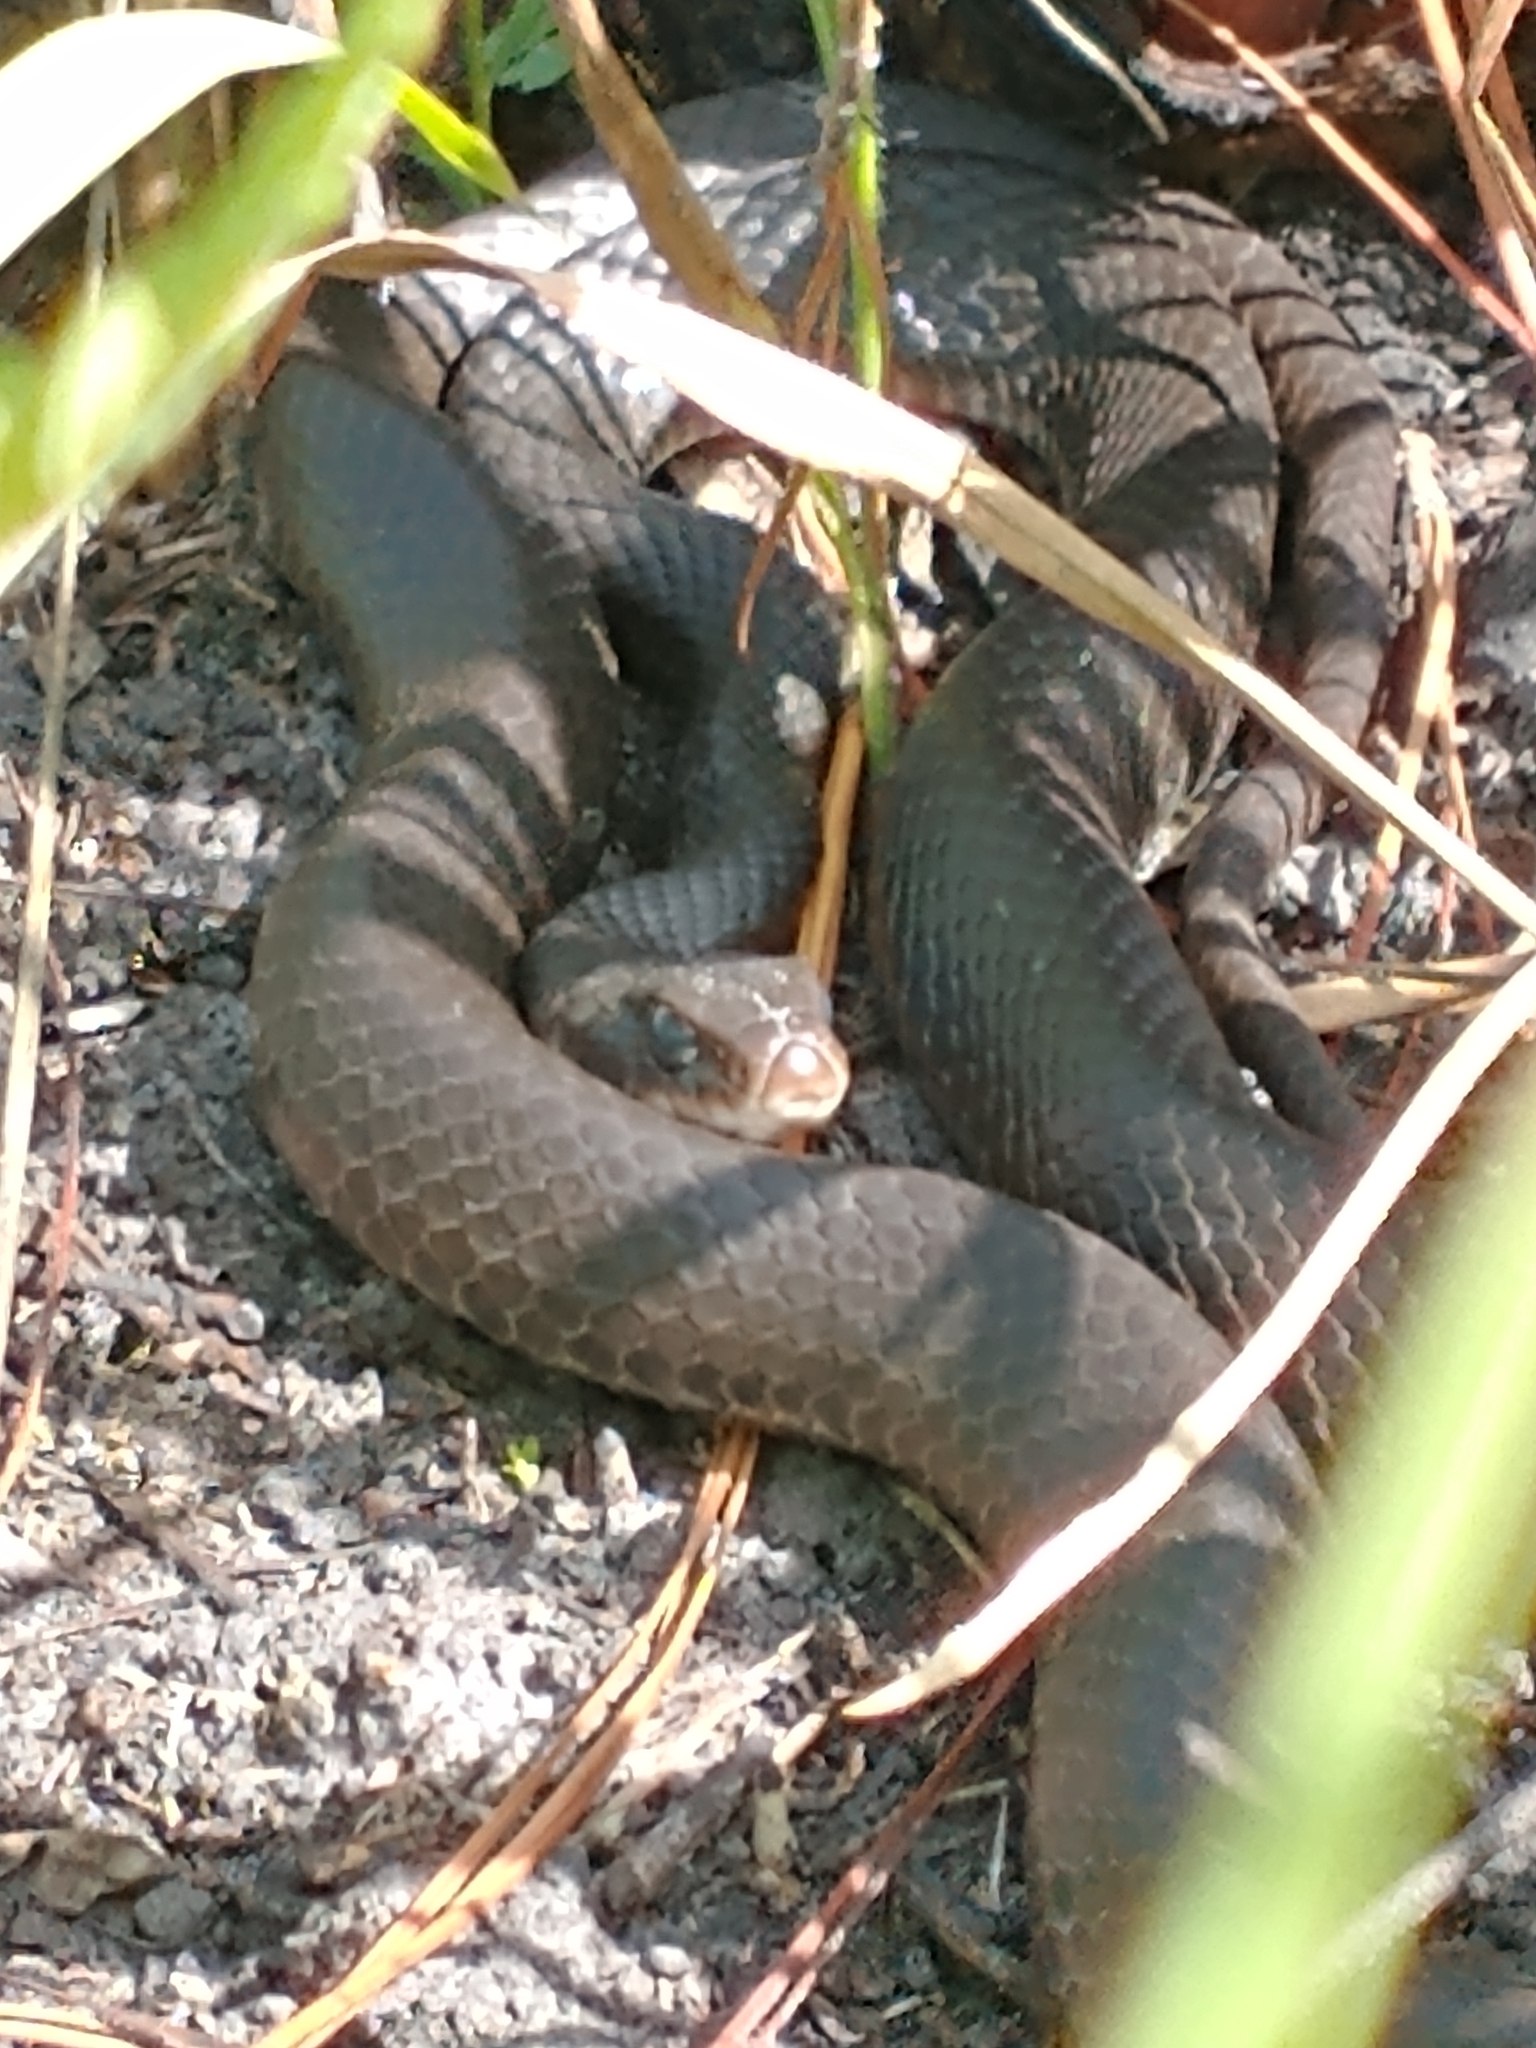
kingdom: Animalia
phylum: Chordata
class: Squamata
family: Colubridae
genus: Coluber
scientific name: Coluber constrictor
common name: Eastern racer
